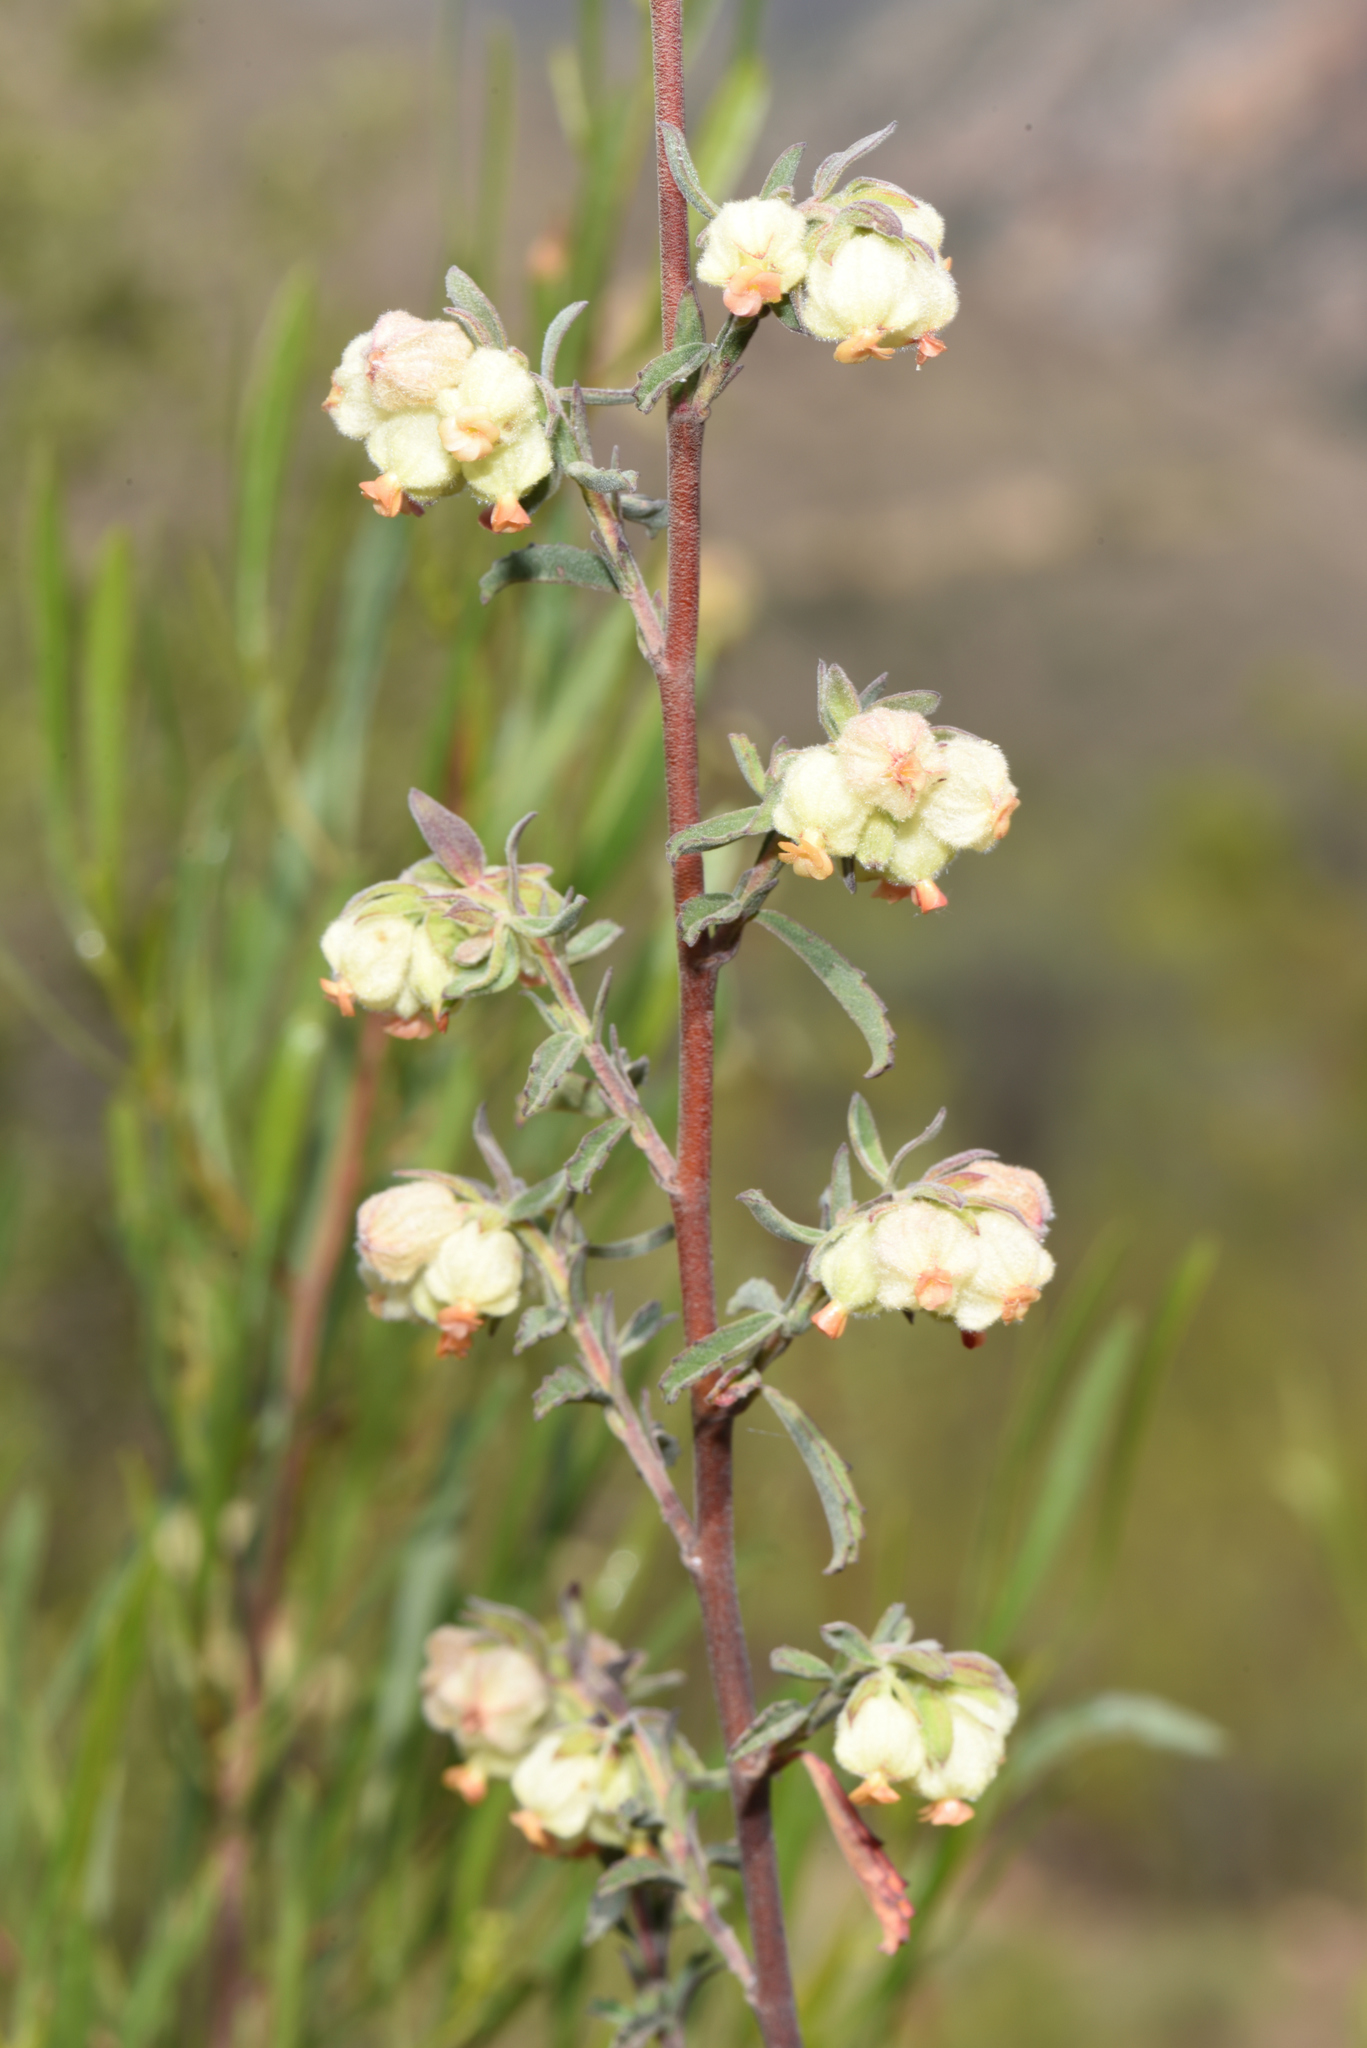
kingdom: Plantae
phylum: Tracheophyta
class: Magnoliopsida
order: Malvales
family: Malvaceae
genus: Hermannia
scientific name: Hermannia hyssopifolia
